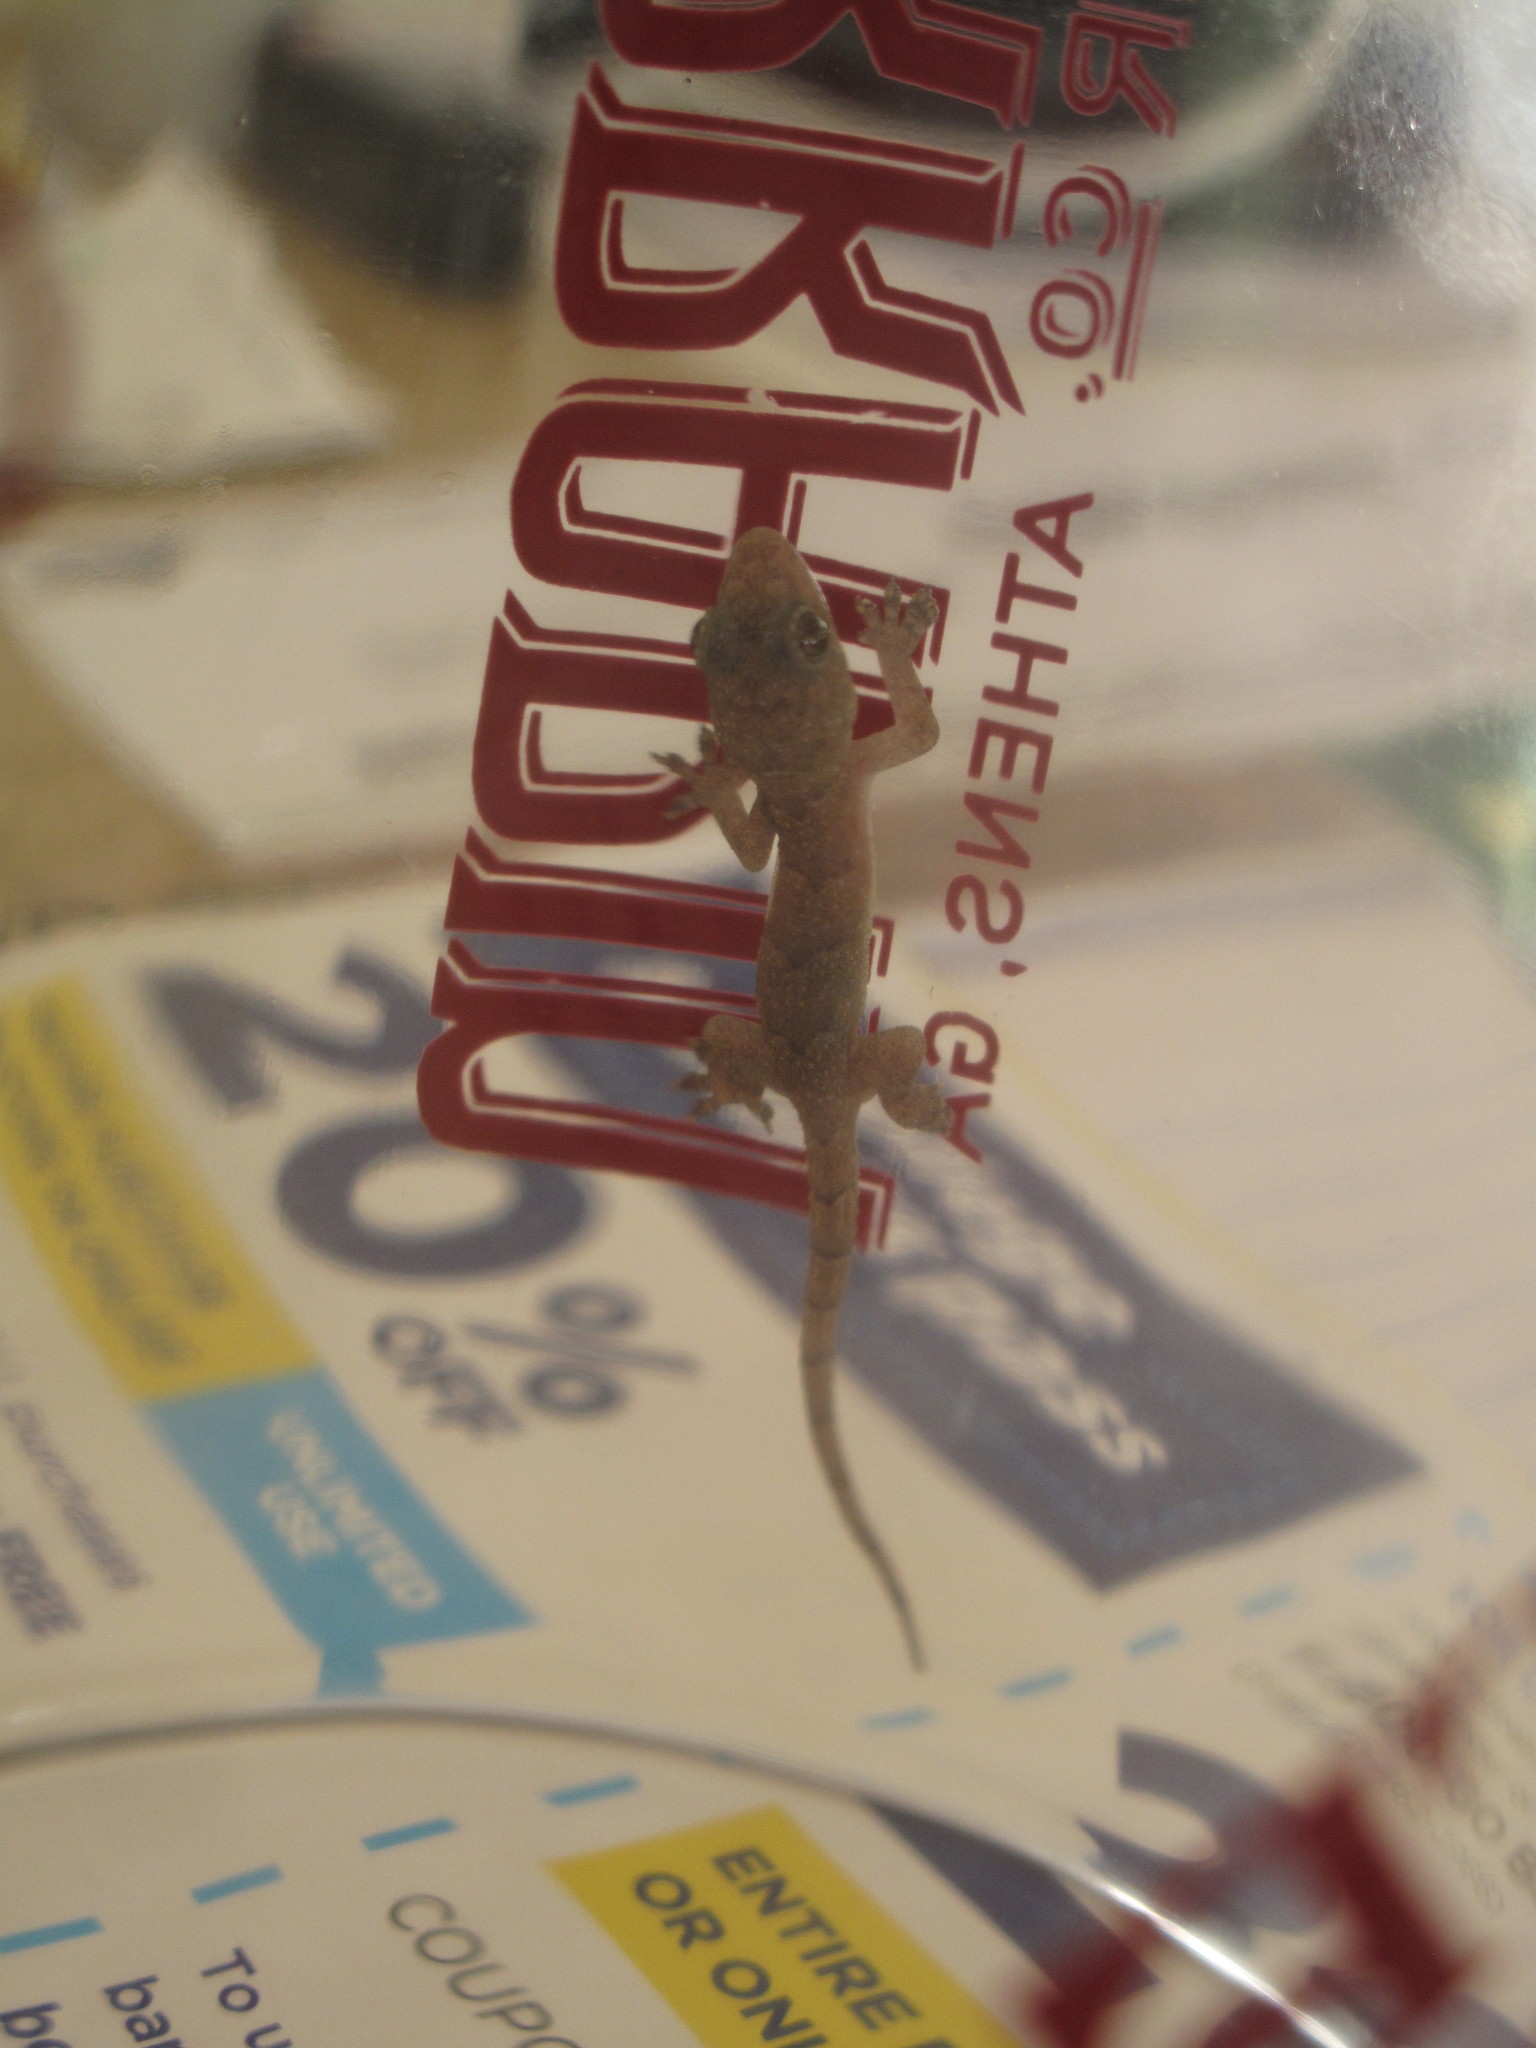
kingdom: Animalia
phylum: Chordata
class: Squamata
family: Gekkonidae
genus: Hemidactylus
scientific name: Hemidactylus mabouia
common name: House gecko
